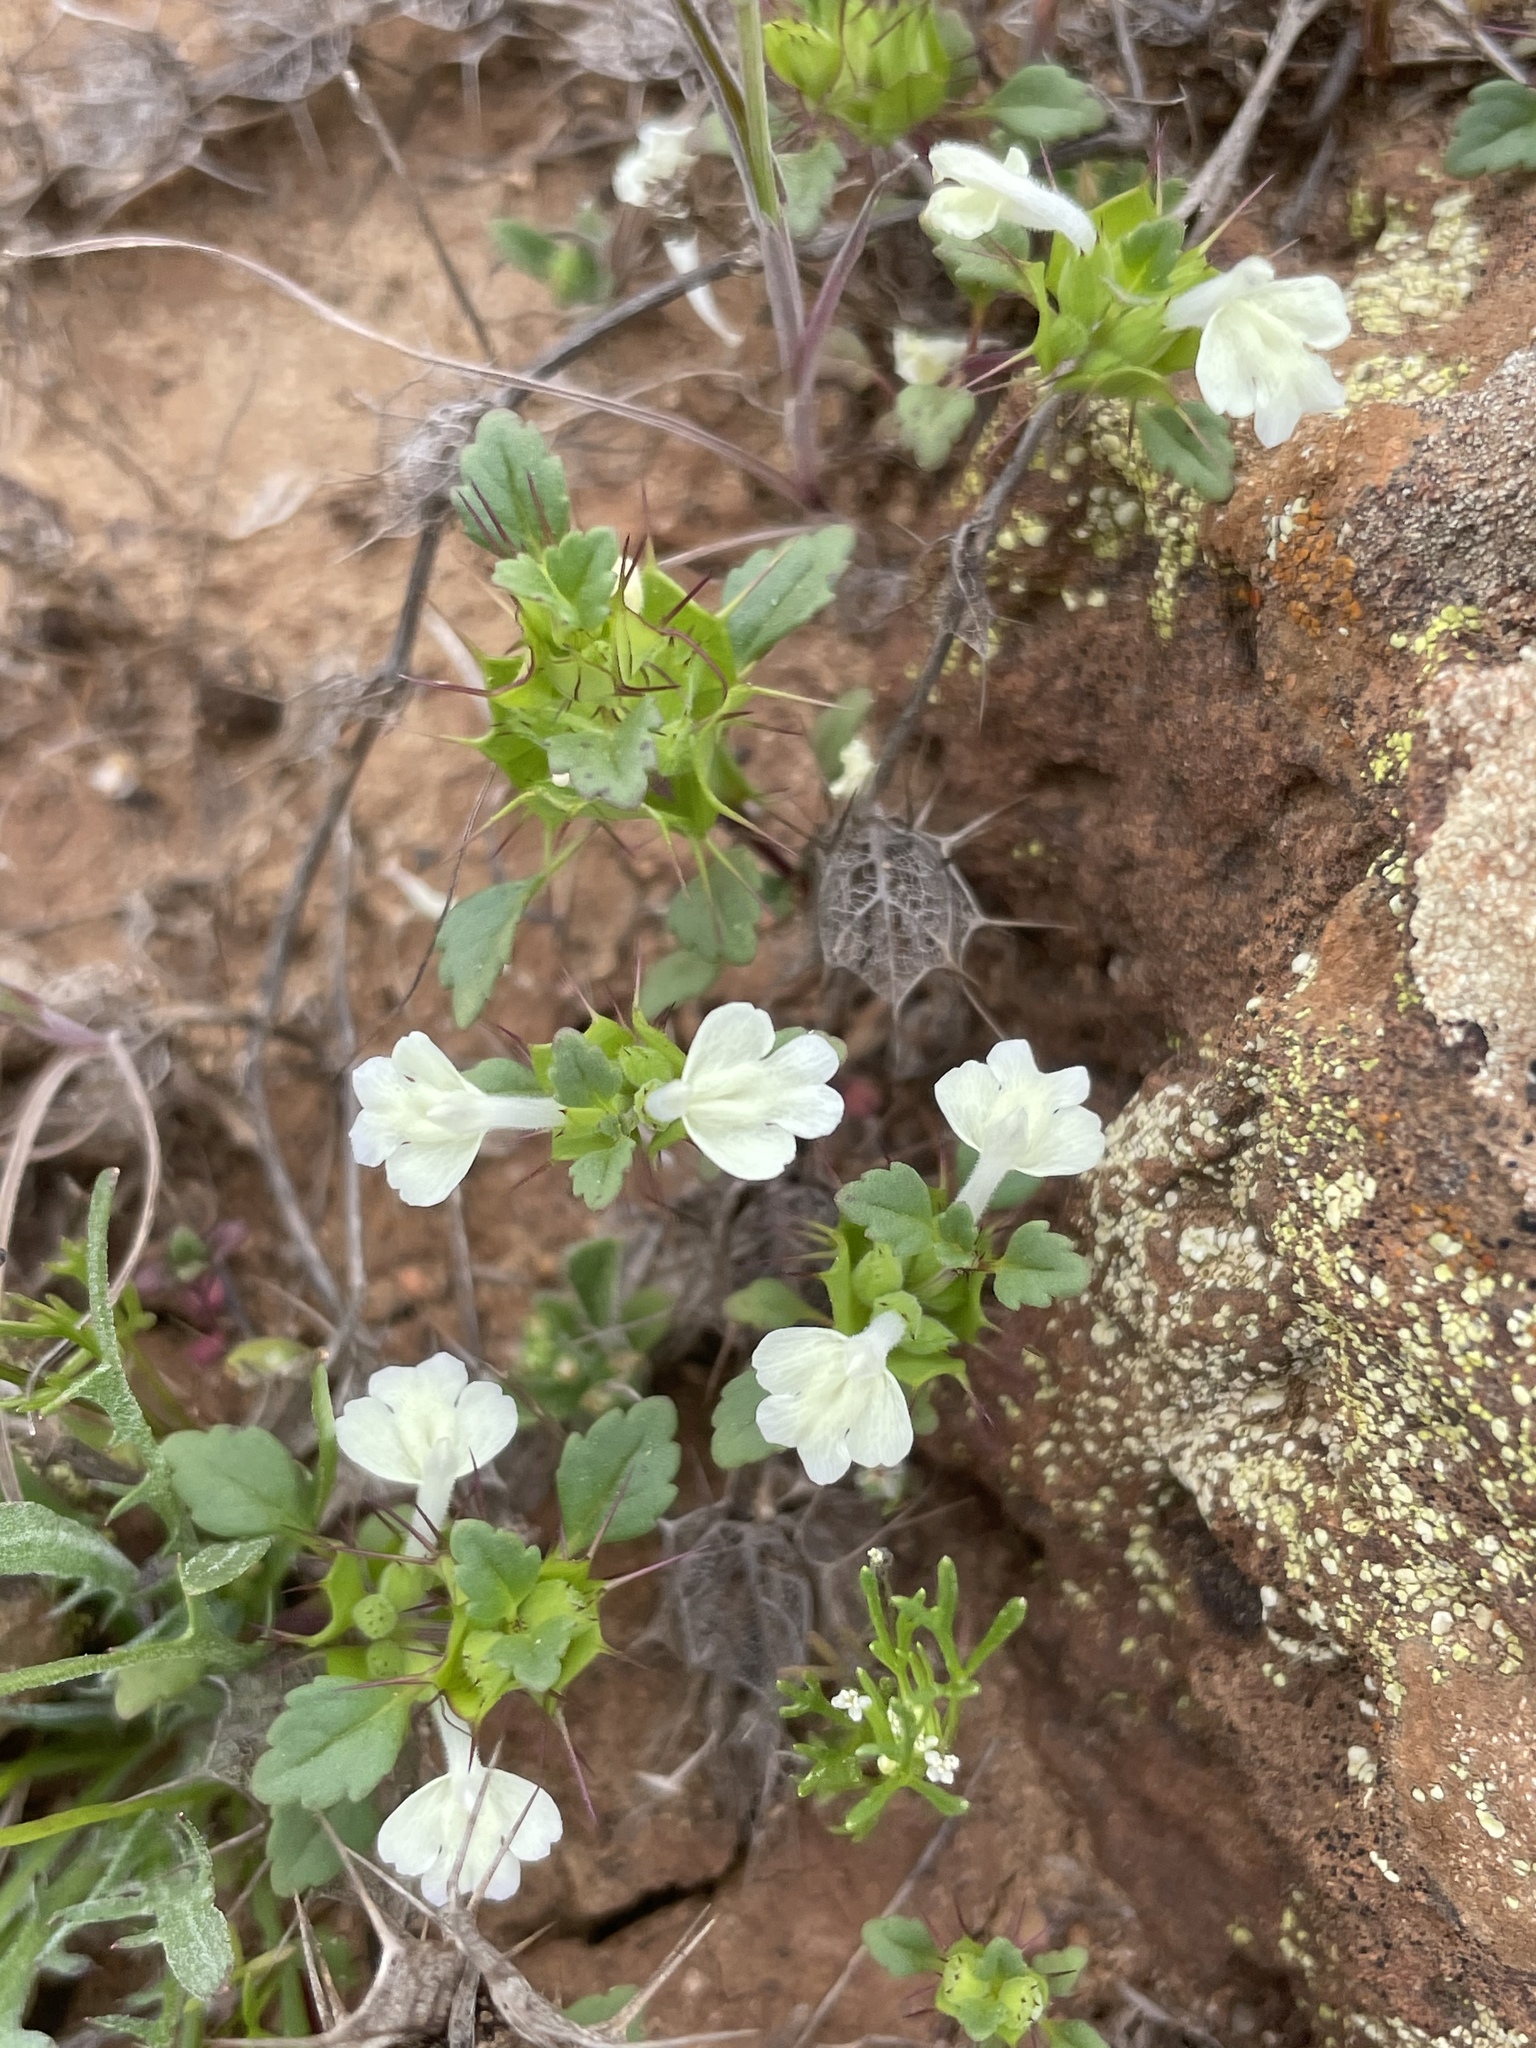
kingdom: Plantae
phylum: Tracheophyta
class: Magnoliopsida
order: Lamiales
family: Lamiaceae
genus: Acanthomintha
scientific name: Acanthomintha ilicifolia
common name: San diego thorn-mint
